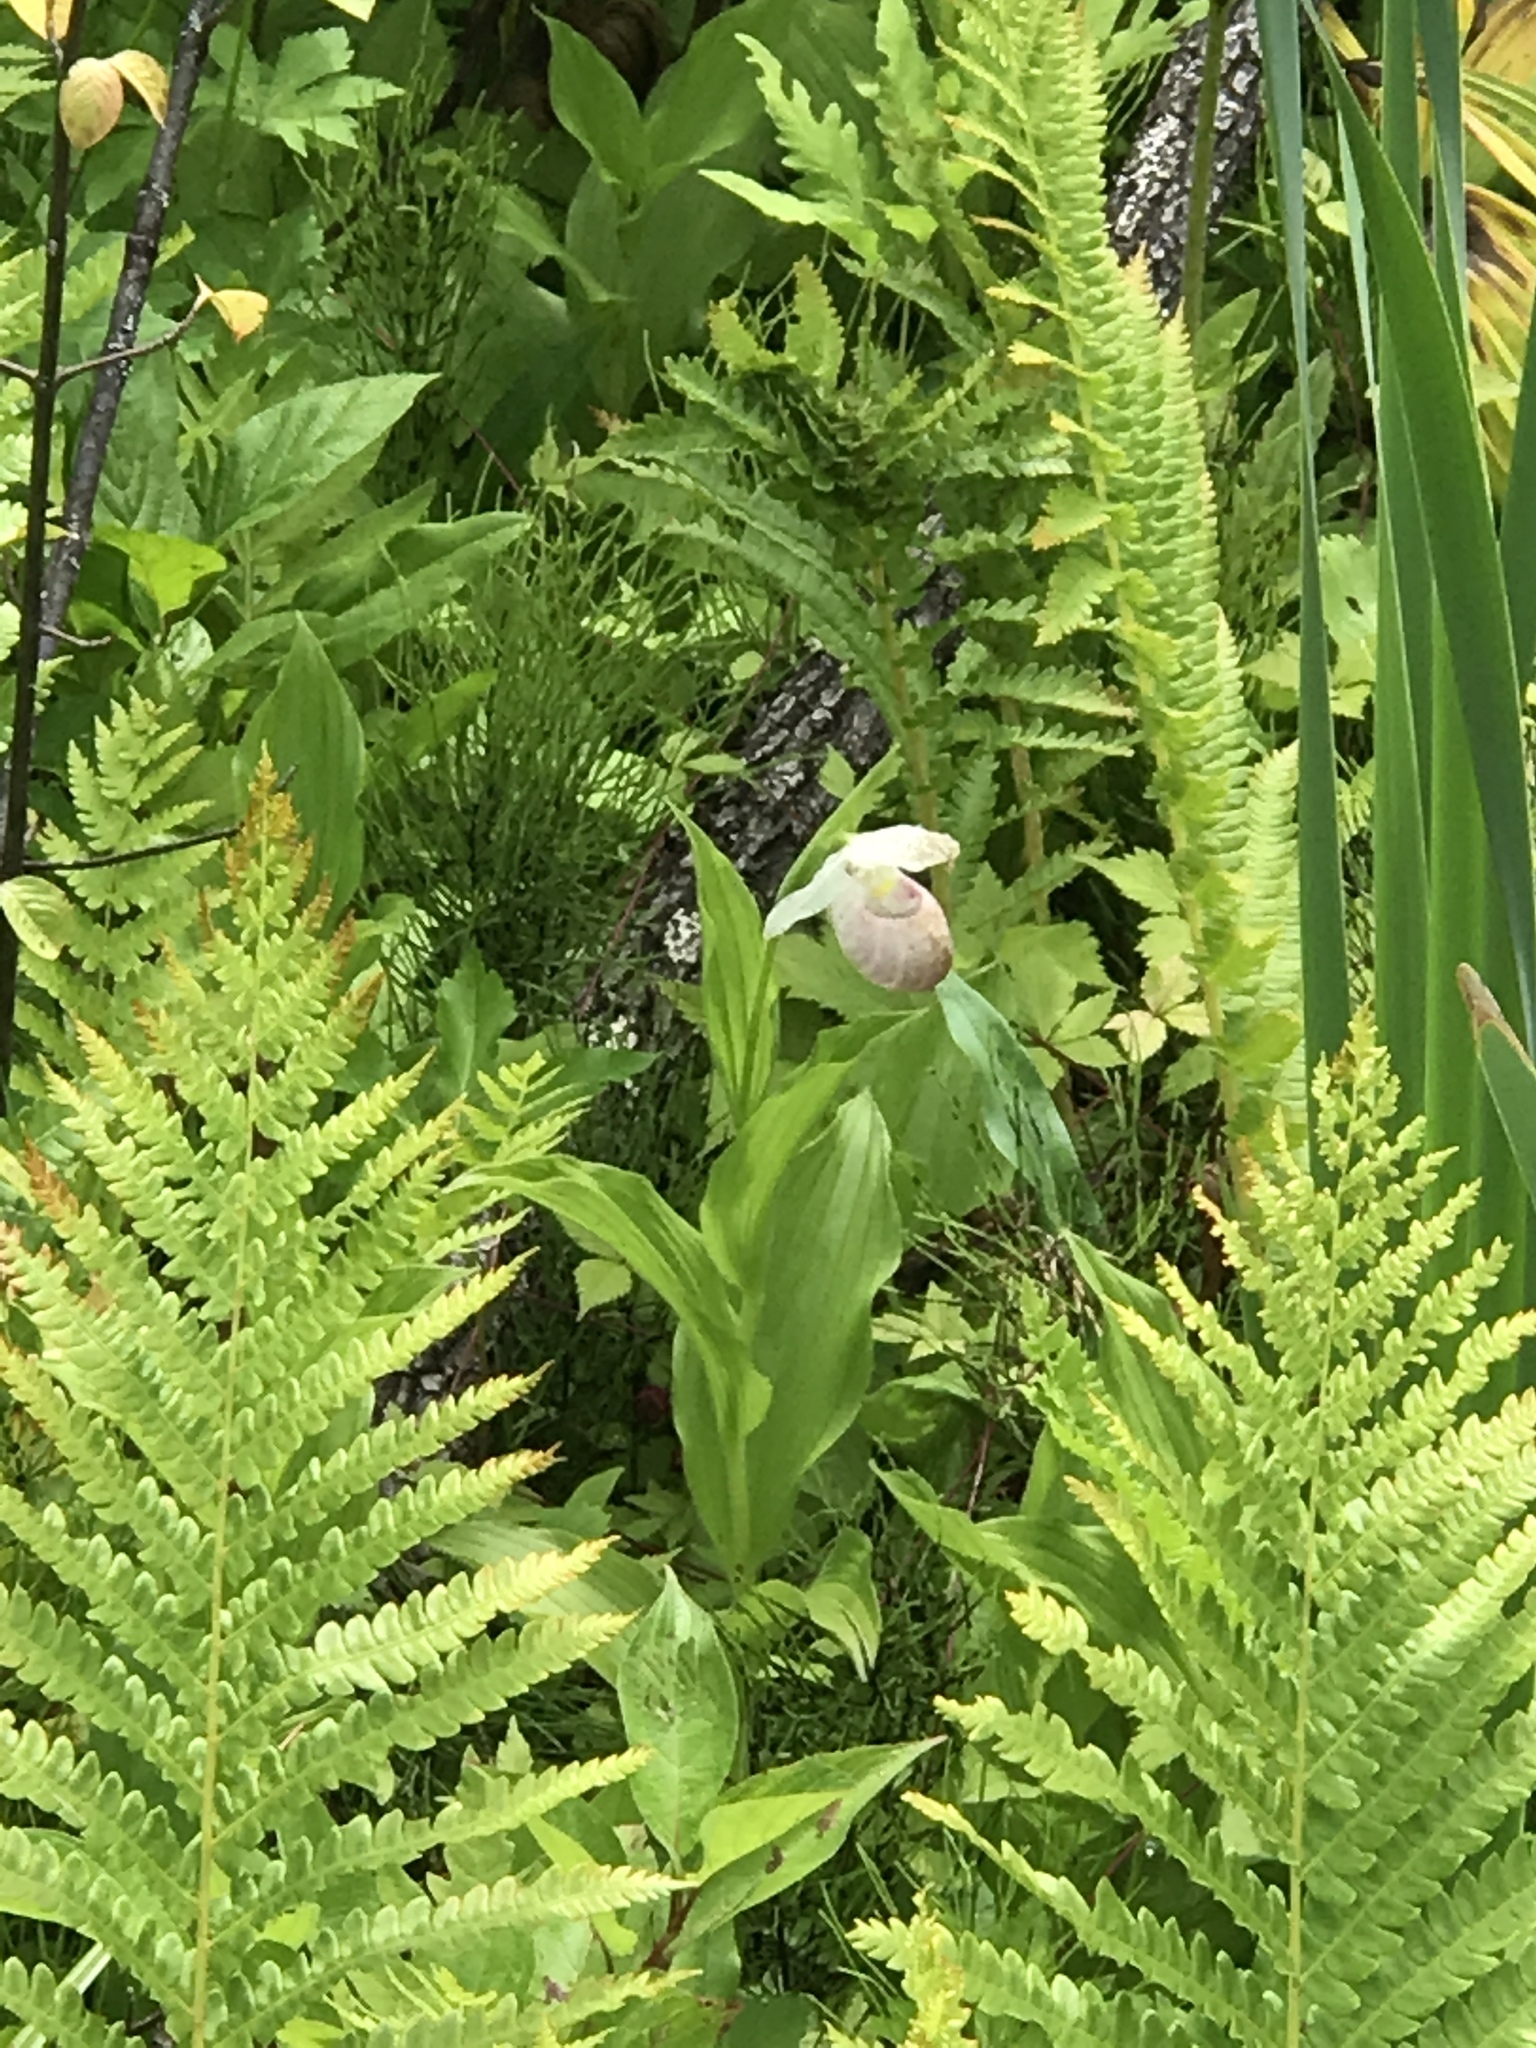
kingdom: Plantae
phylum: Tracheophyta
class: Liliopsida
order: Asparagales
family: Orchidaceae
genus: Cypripedium
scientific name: Cypripedium reginae
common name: Queen lady's-slipper
